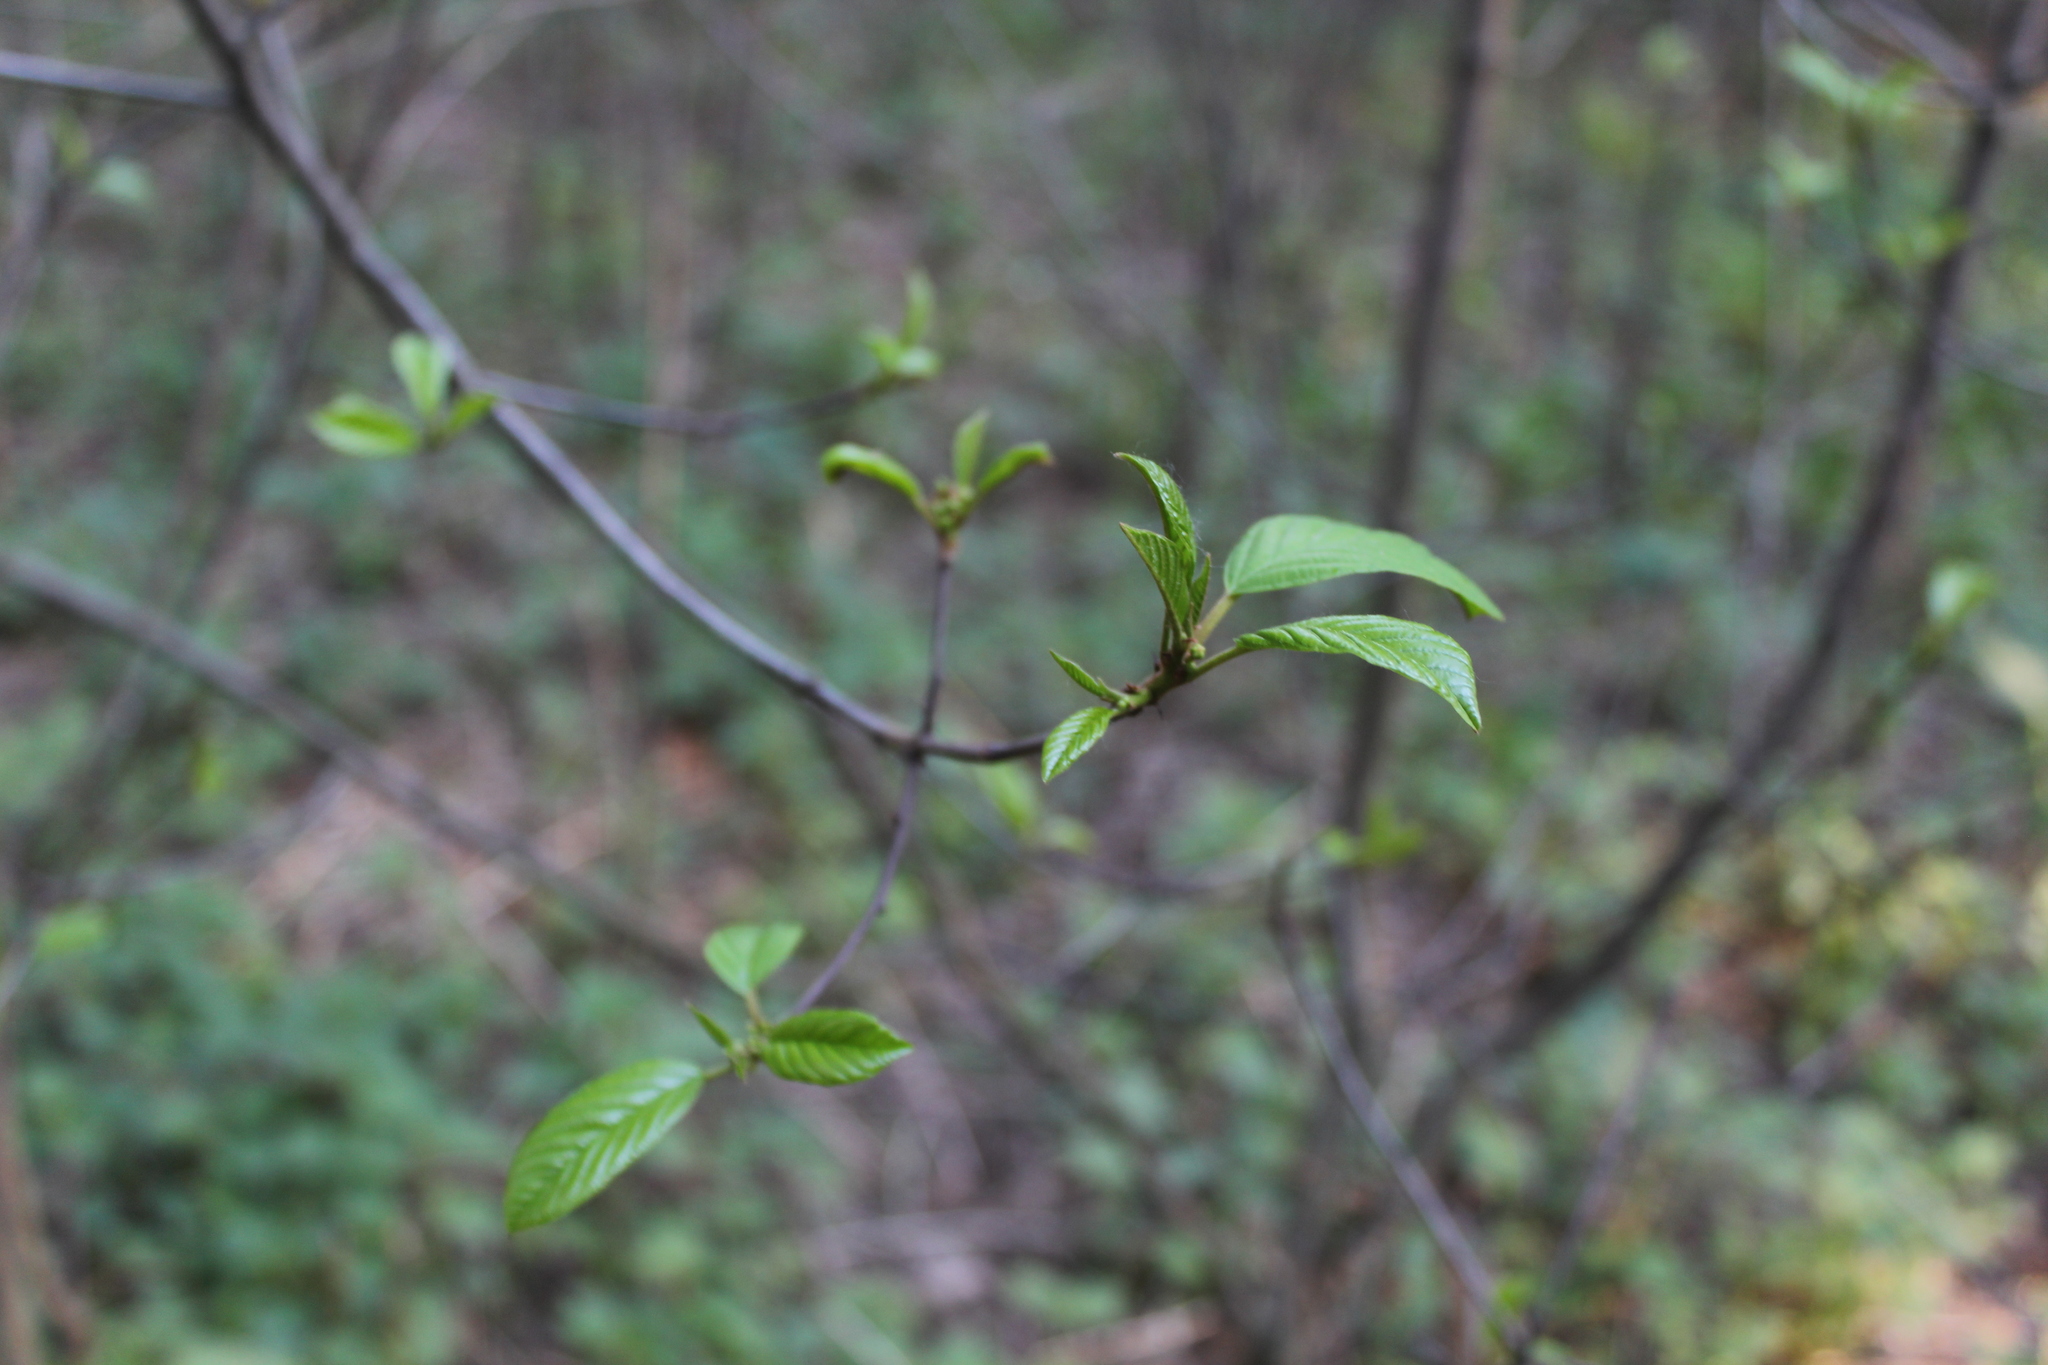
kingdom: Plantae
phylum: Tracheophyta
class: Magnoliopsida
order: Rosales
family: Rhamnaceae
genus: Frangula
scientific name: Frangula alnus
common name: Alder buckthorn
